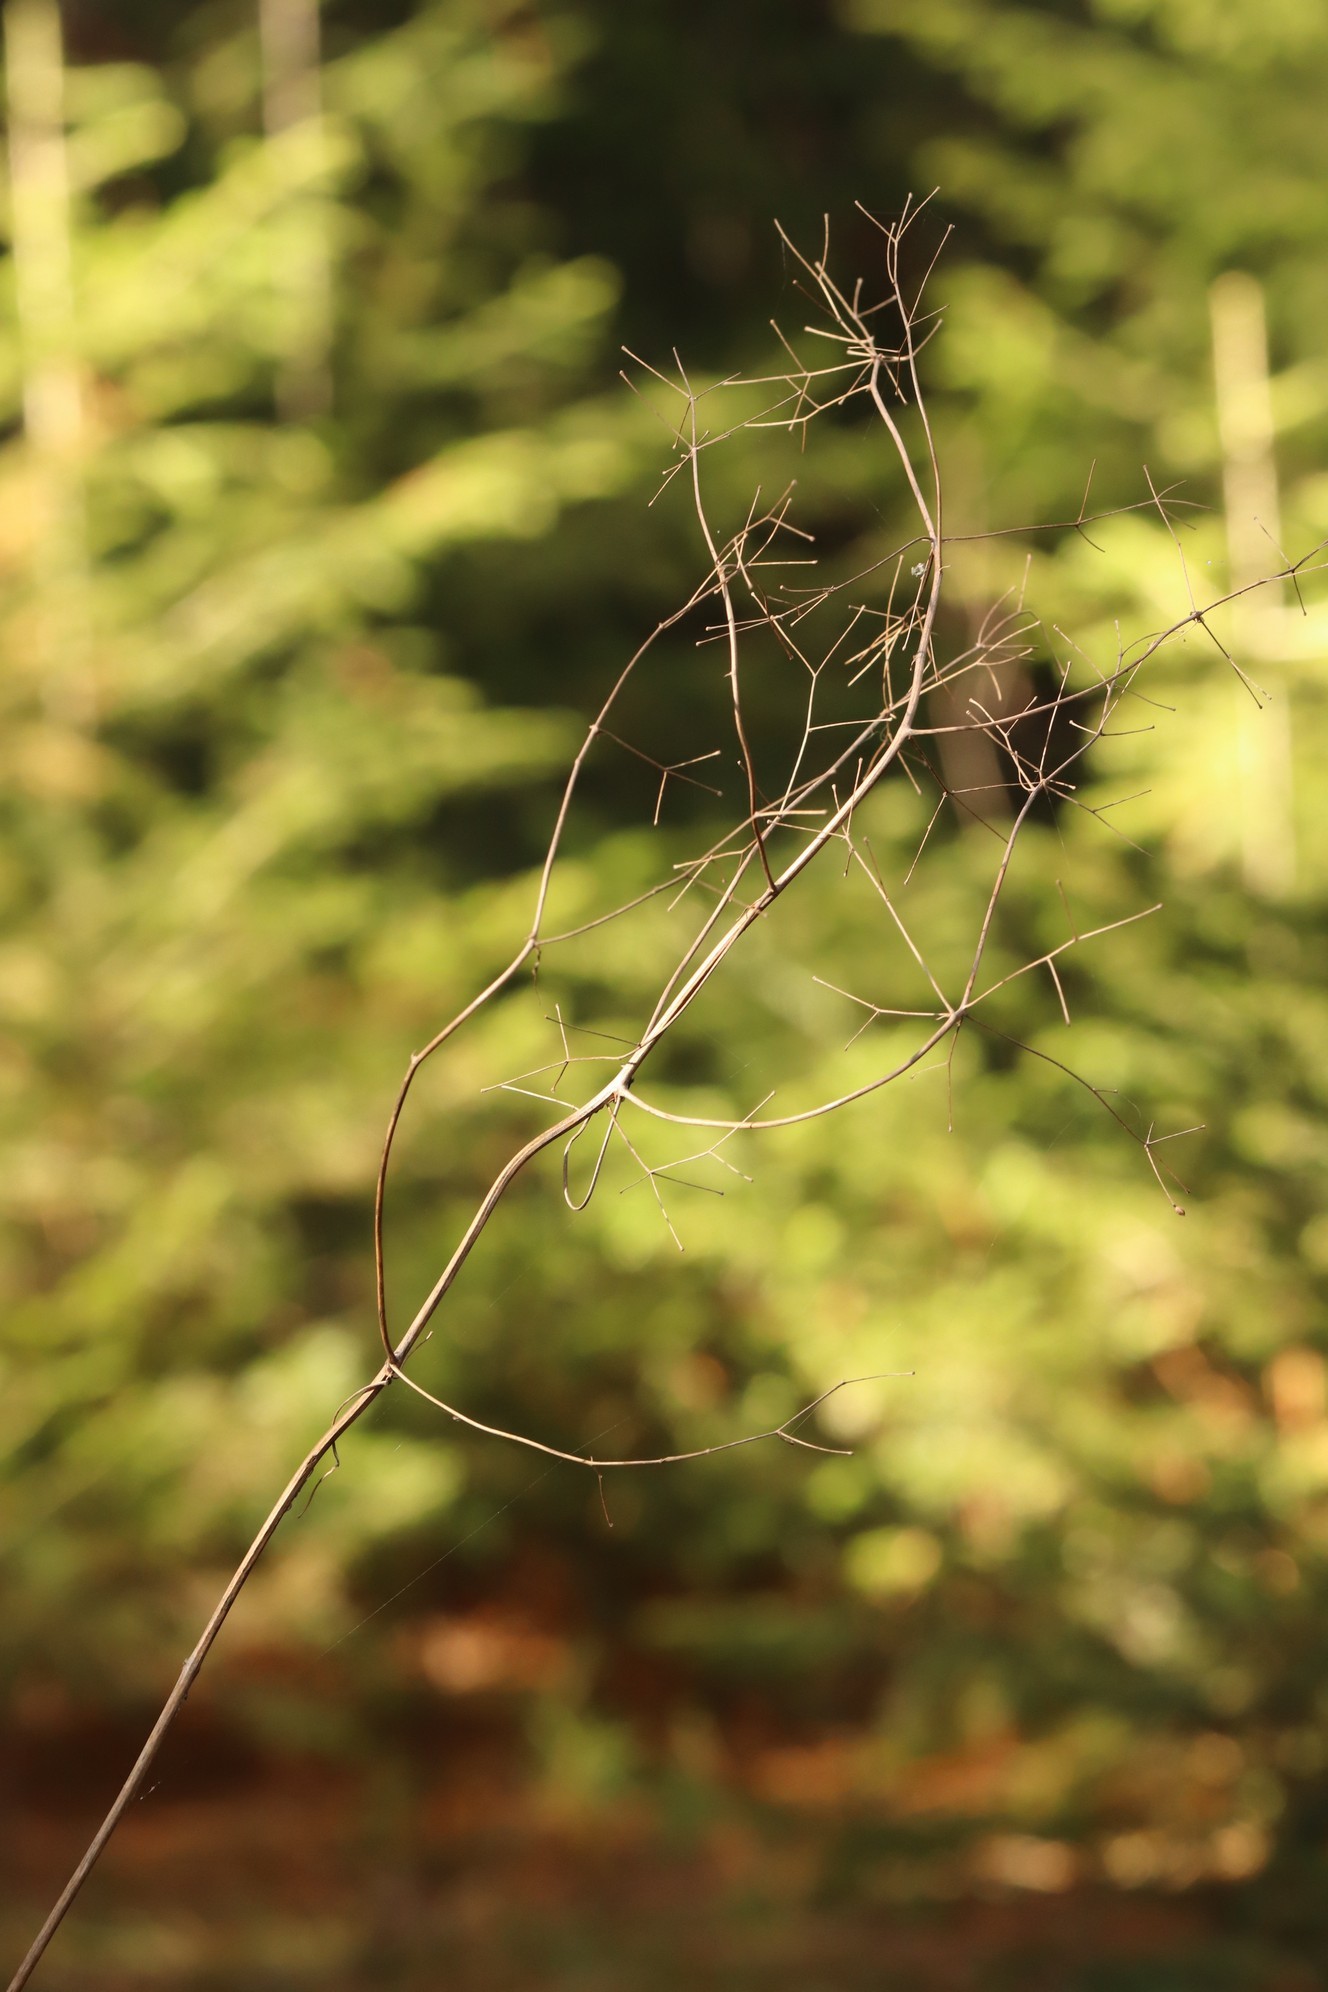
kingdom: Plantae
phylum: Tracheophyta
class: Magnoliopsida
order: Ranunculales
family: Ranunculaceae
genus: Thalictrum
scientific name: Thalictrum simplex
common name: Small meadow-rue
